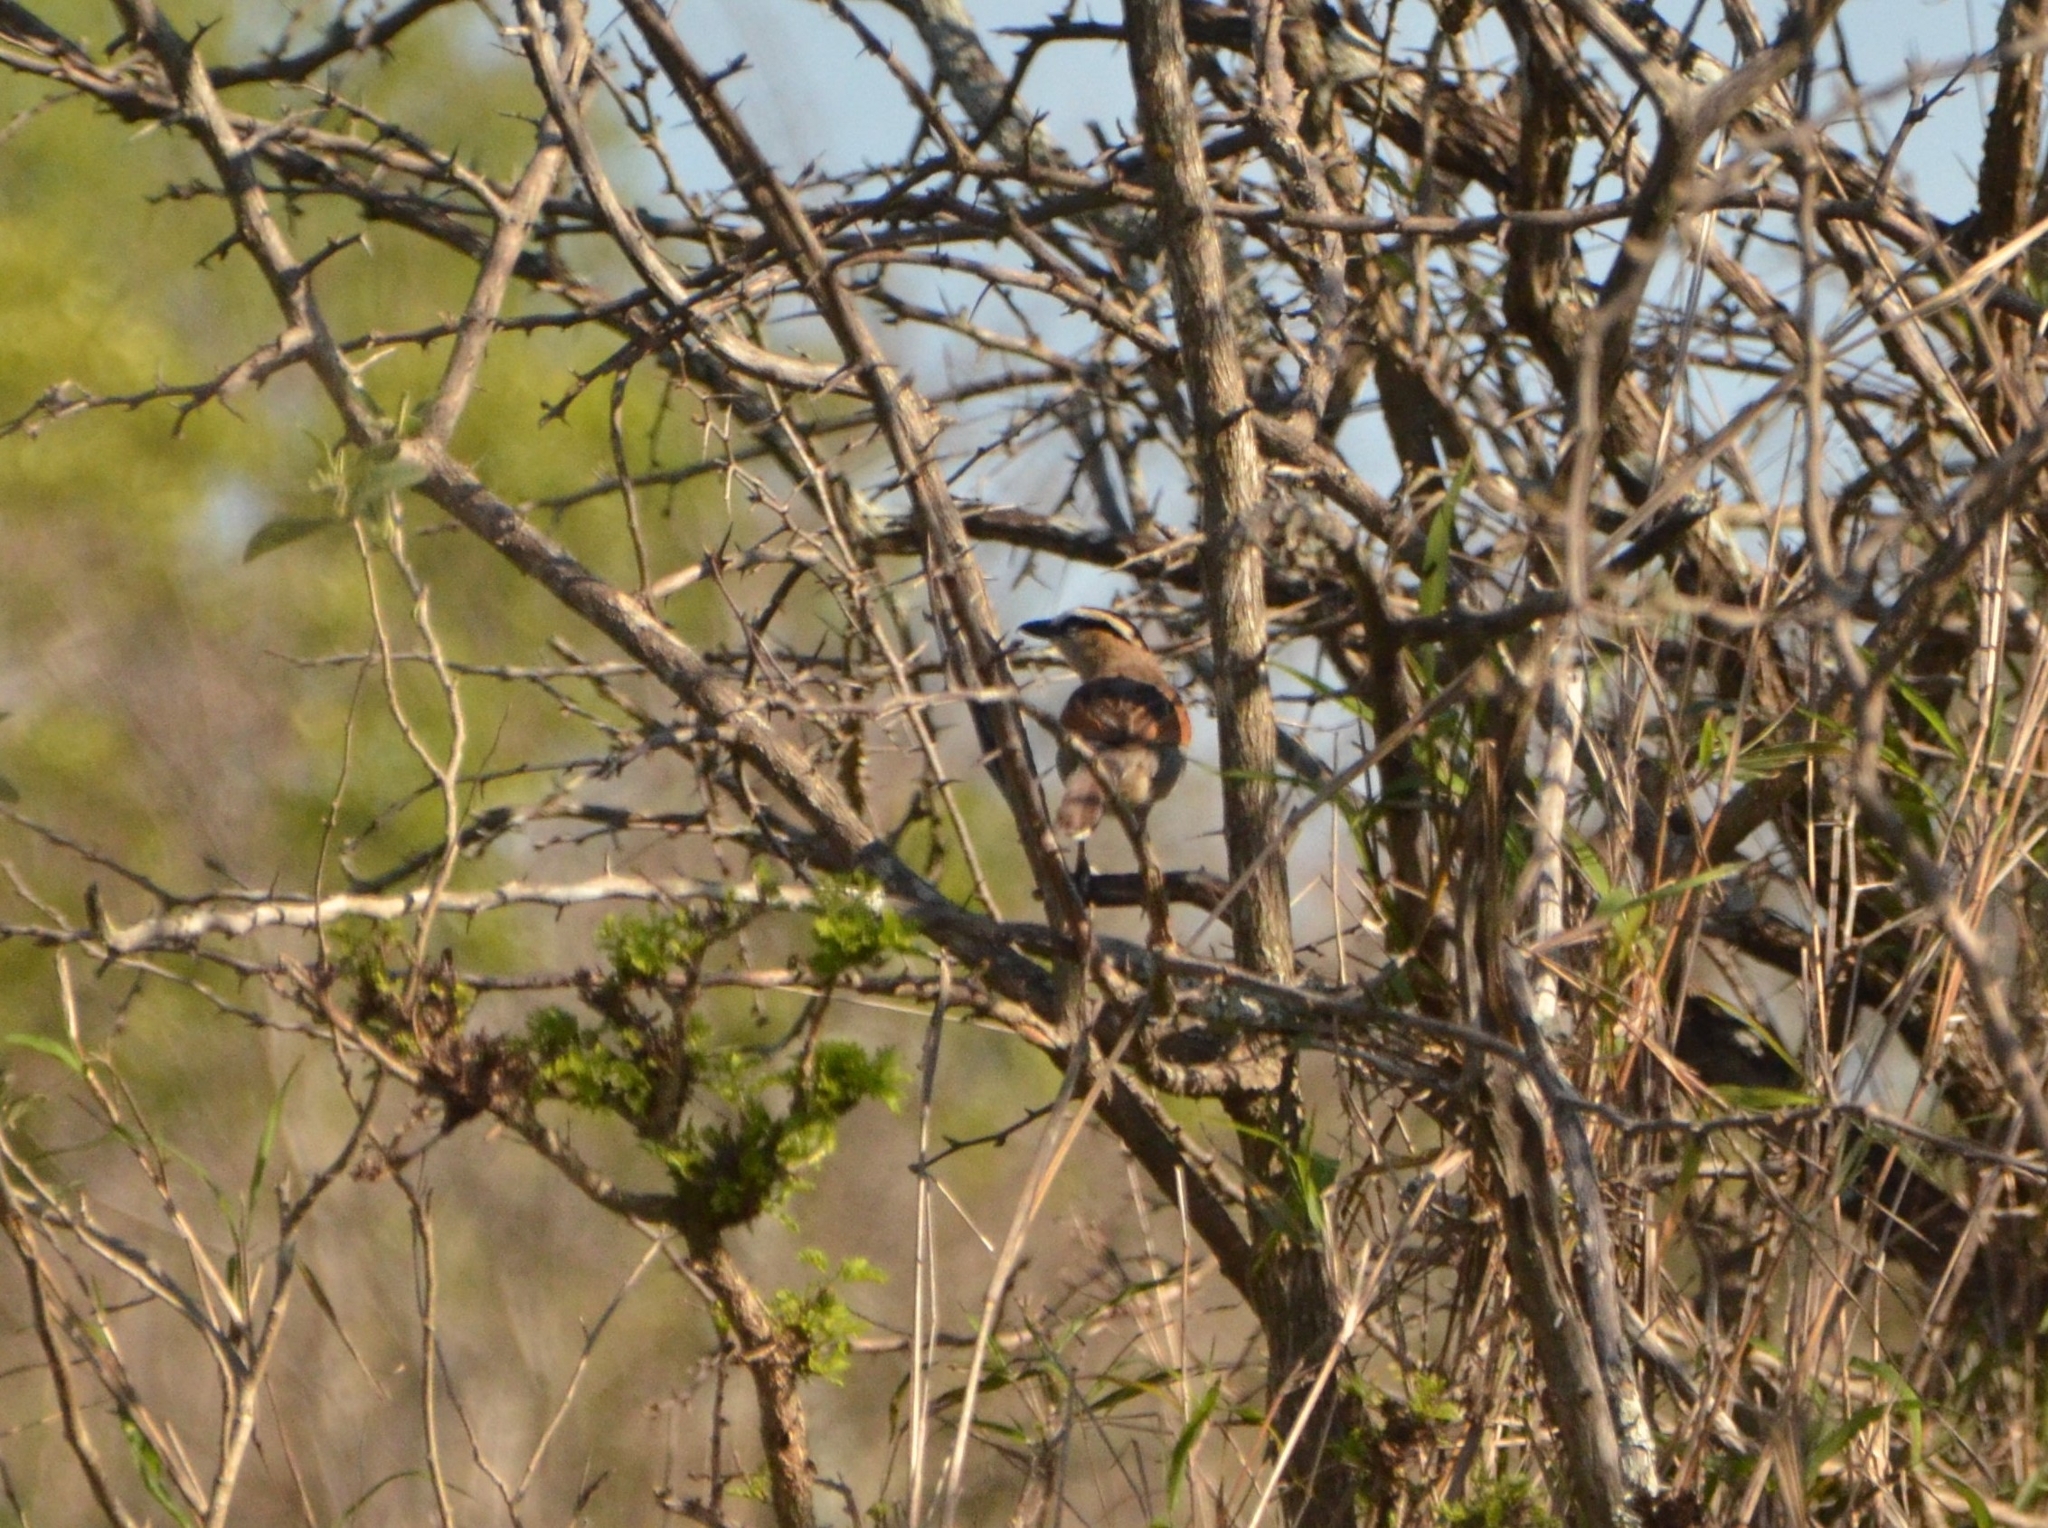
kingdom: Animalia
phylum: Chordata
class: Aves
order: Passeriformes
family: Malaconotidae
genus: Tchagra
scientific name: Tchagra senegalus
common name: Black-crowned tchagra
